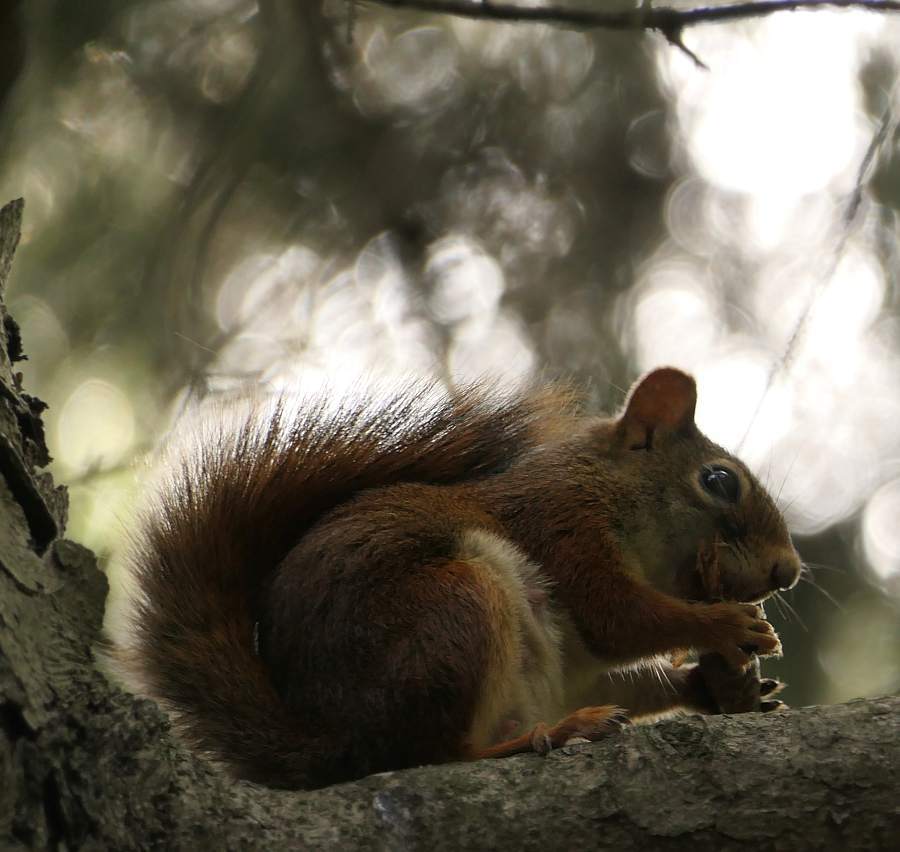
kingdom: Animalia
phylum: Chordata
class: Mammalia
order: Rodentia
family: Sciuridae
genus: Tamiasciurus
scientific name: Tamiasciurus hudsonicus
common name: Red squirrel
